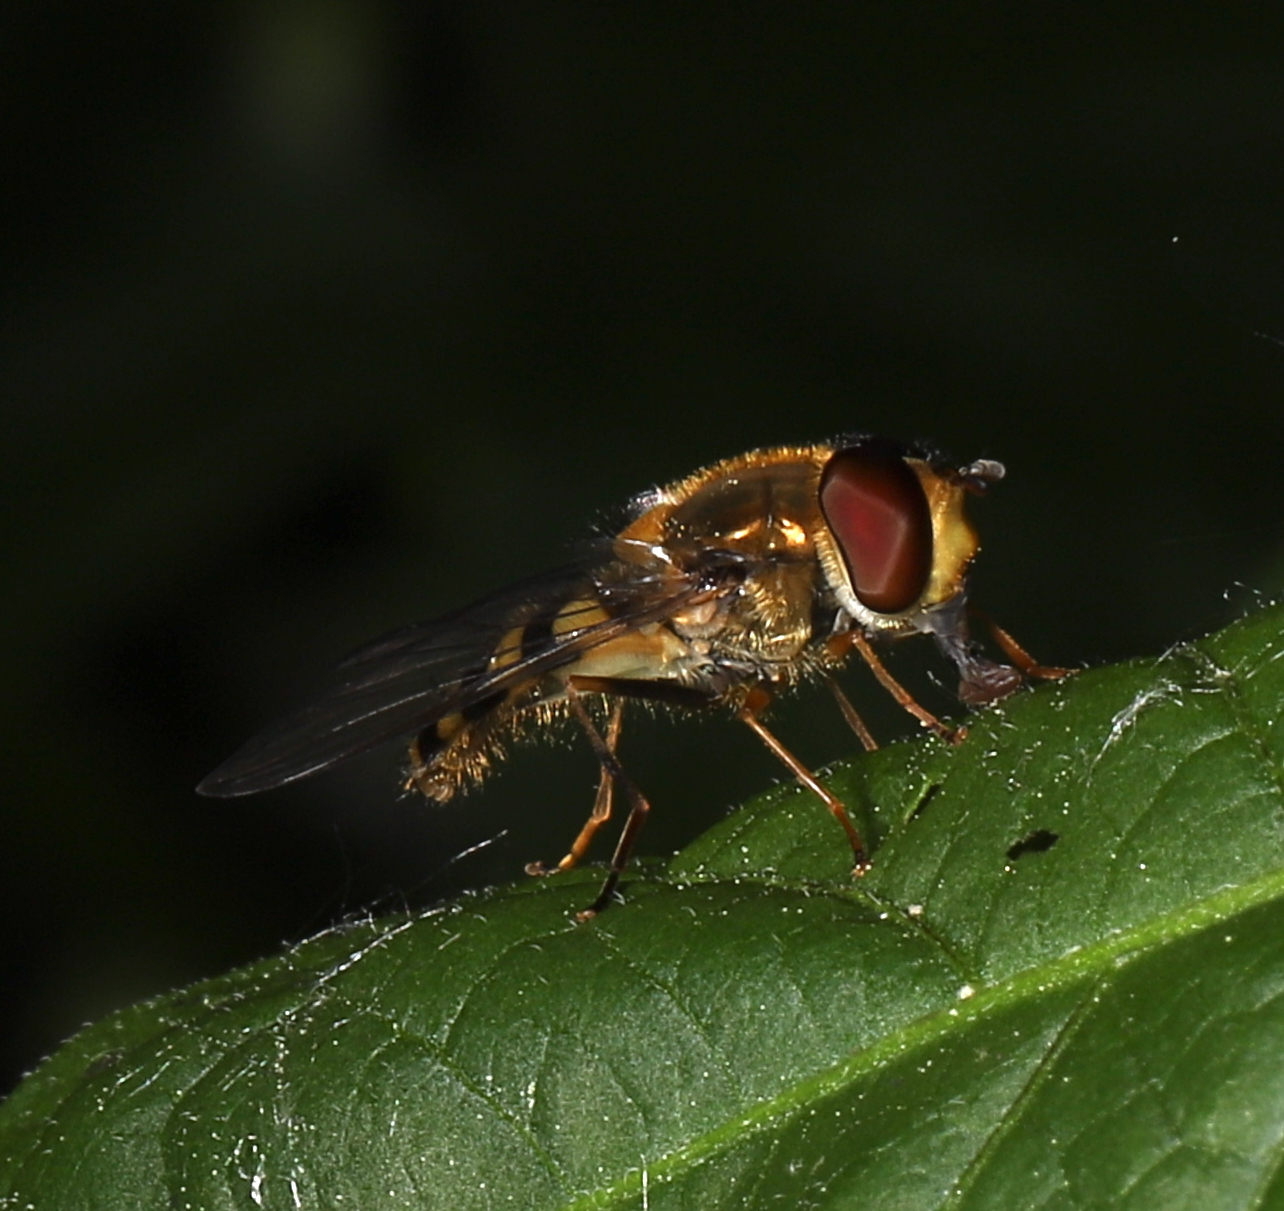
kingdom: Animalia
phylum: Arthropoda
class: Insecta
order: Diptera
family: Syrphidae
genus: Syrphus
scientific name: Syrphus
